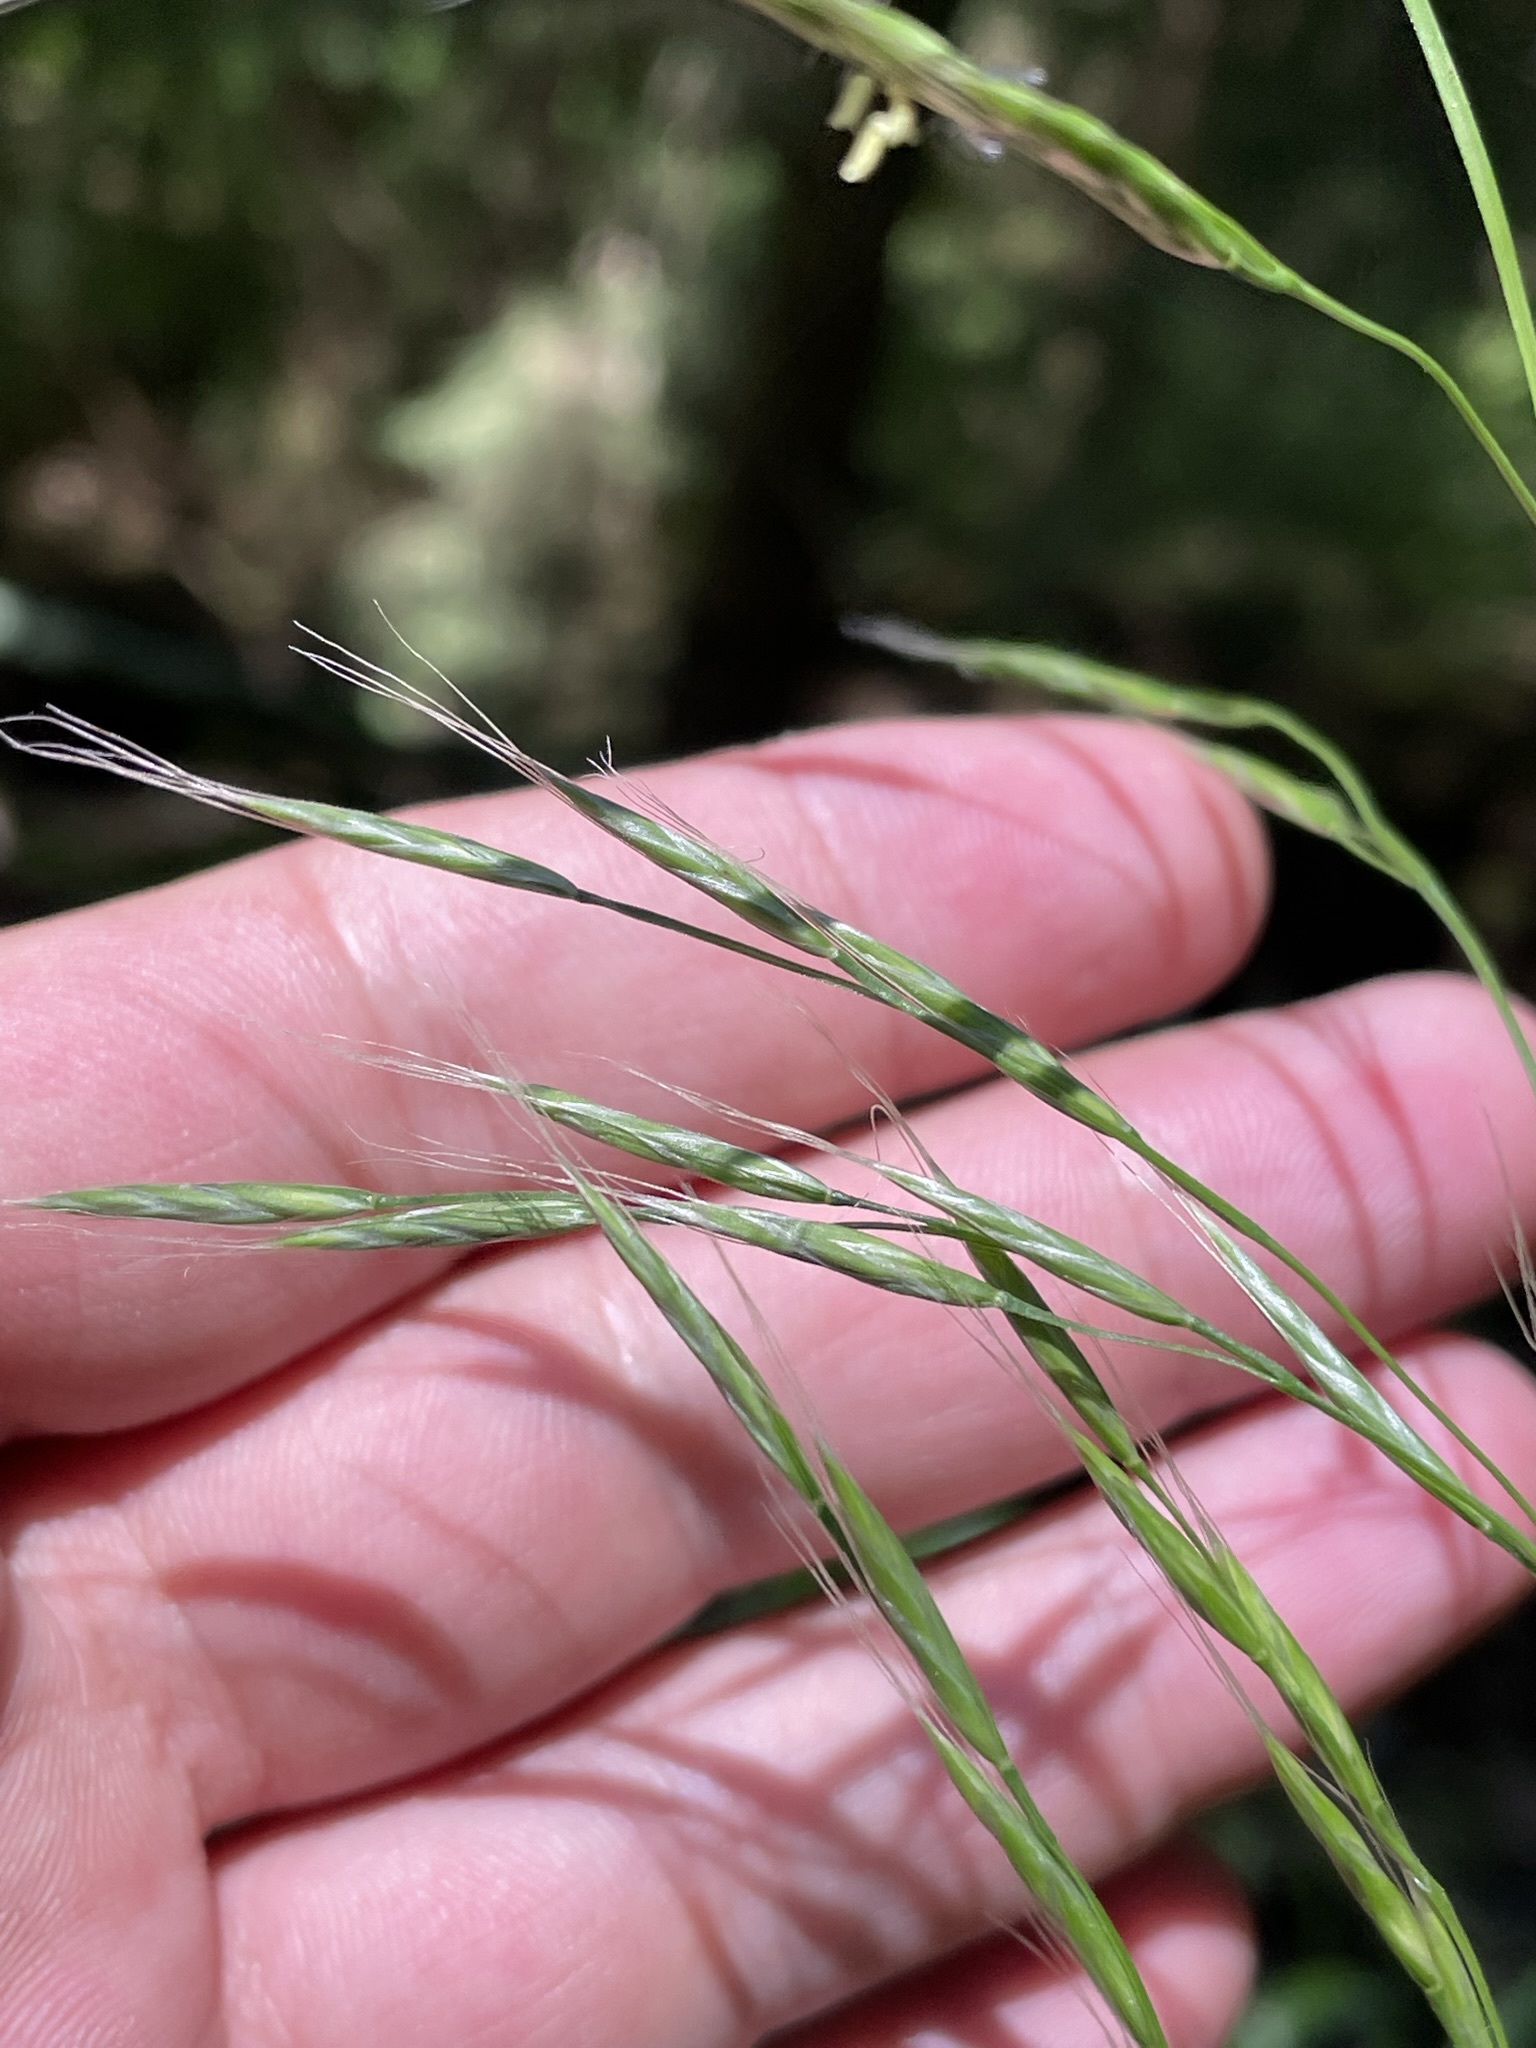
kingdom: Plantae
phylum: Tracheophyta
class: Liliopsida
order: Poales
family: Poaceae
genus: Lolium
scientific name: Lolium giganteum
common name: Giant fescue
